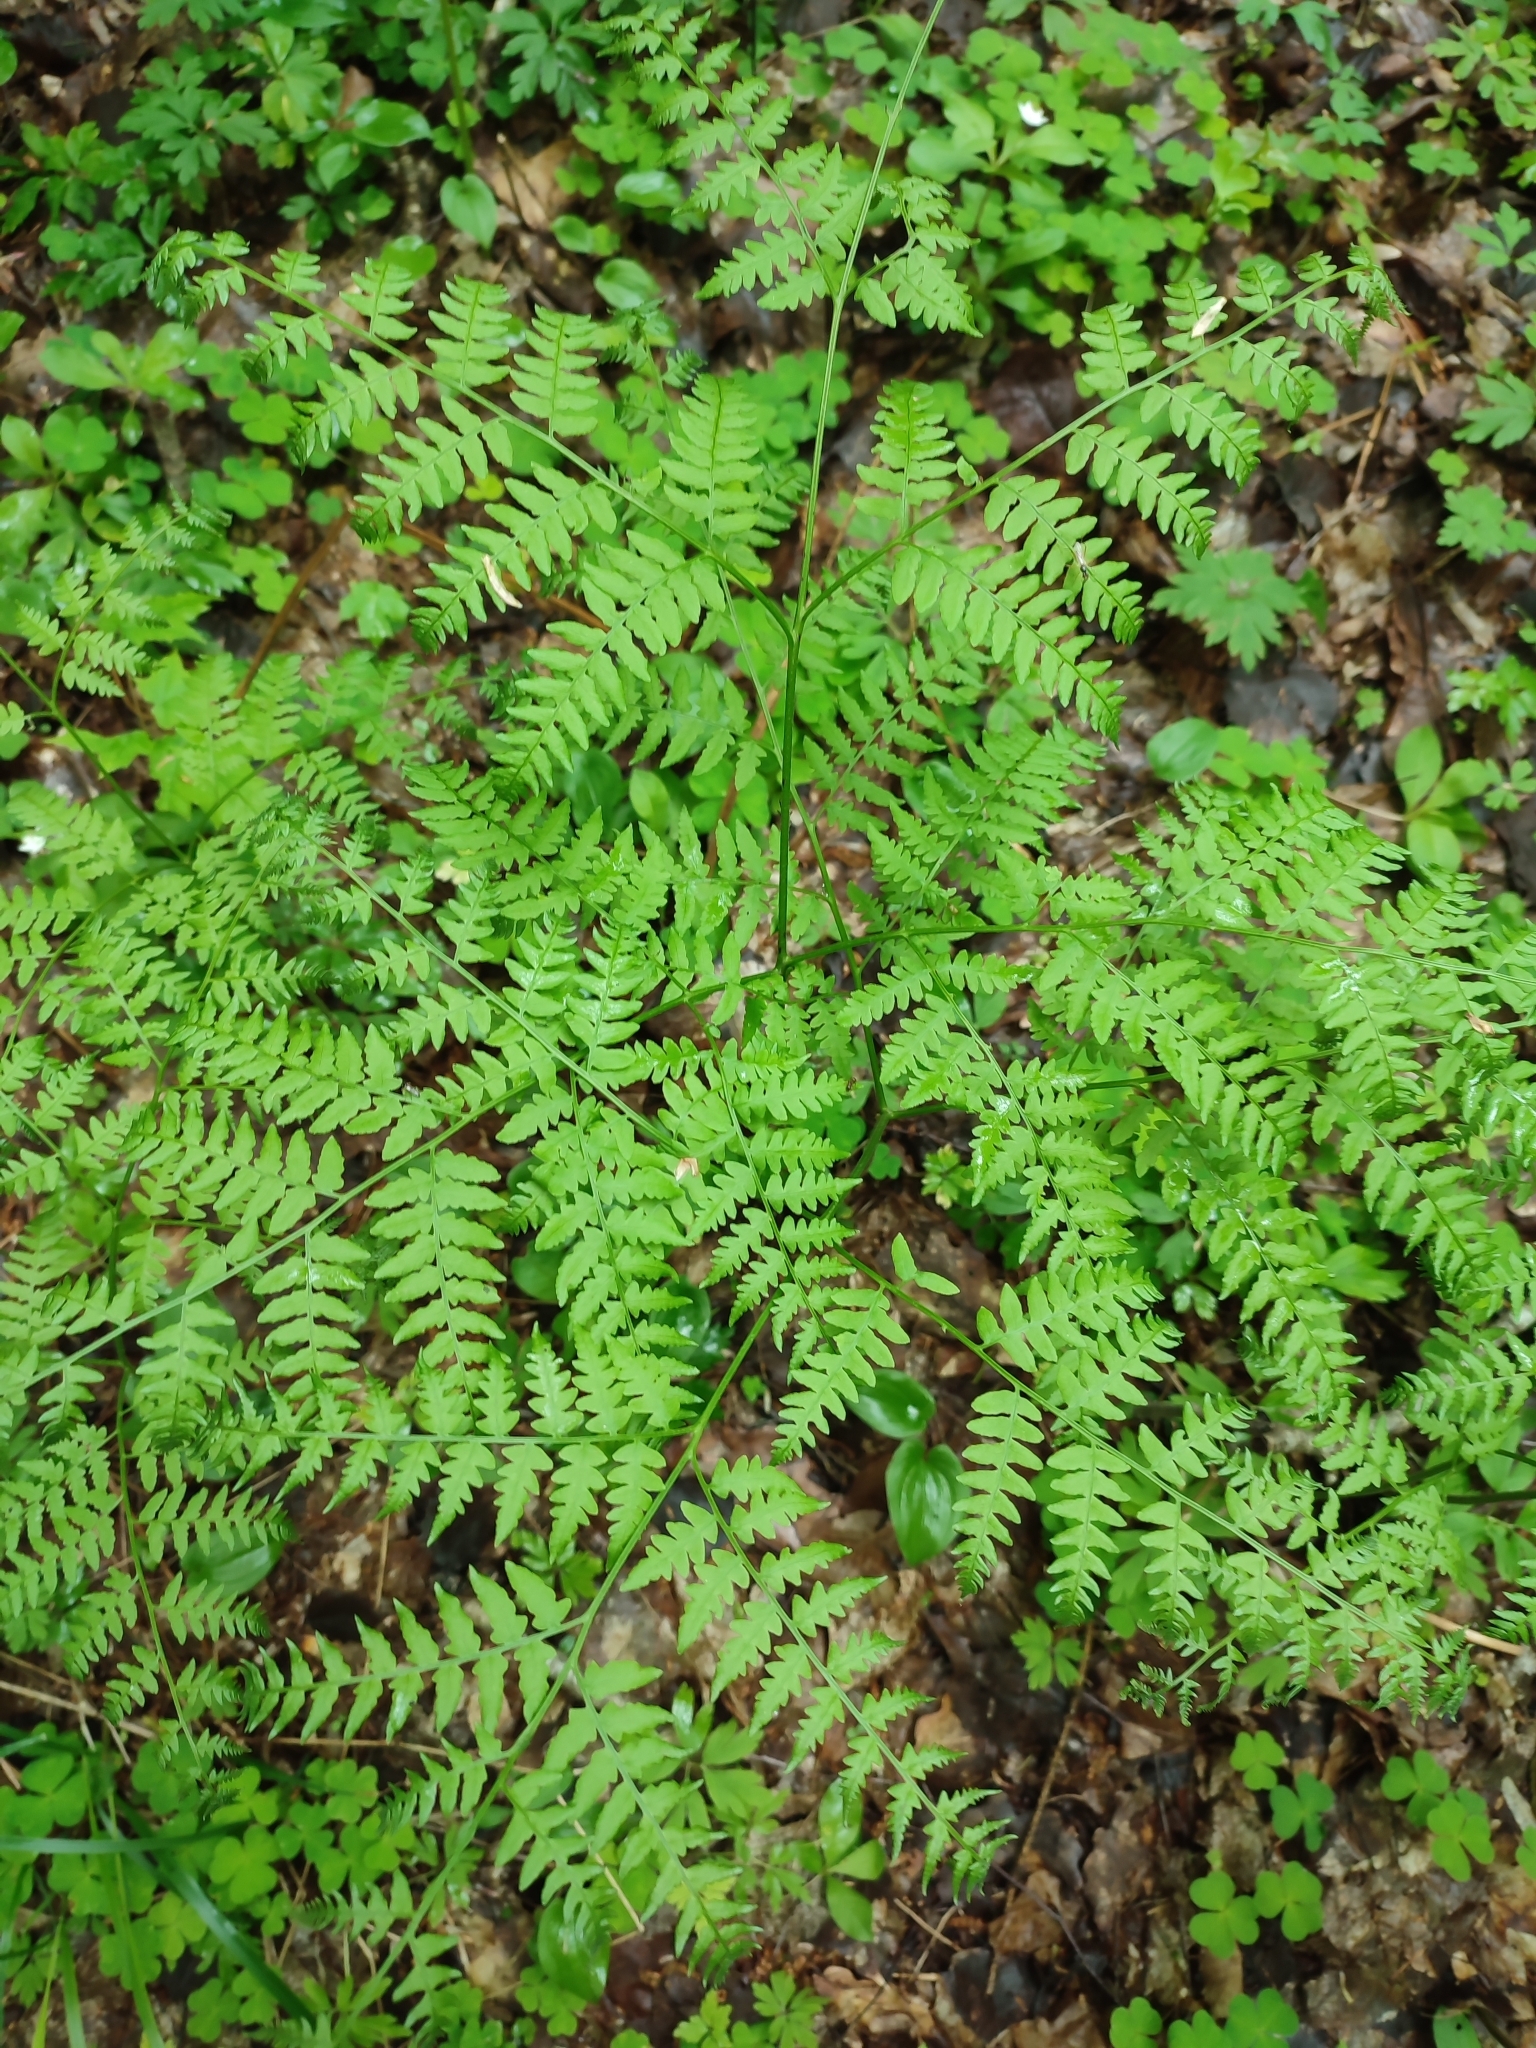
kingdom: Plantae
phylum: Tracheophyta
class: Polypodiopsida
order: Polypodiales
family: Dennstaedtiaceae
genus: Pteridium
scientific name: Pteridium aquilinum
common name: Bracken
